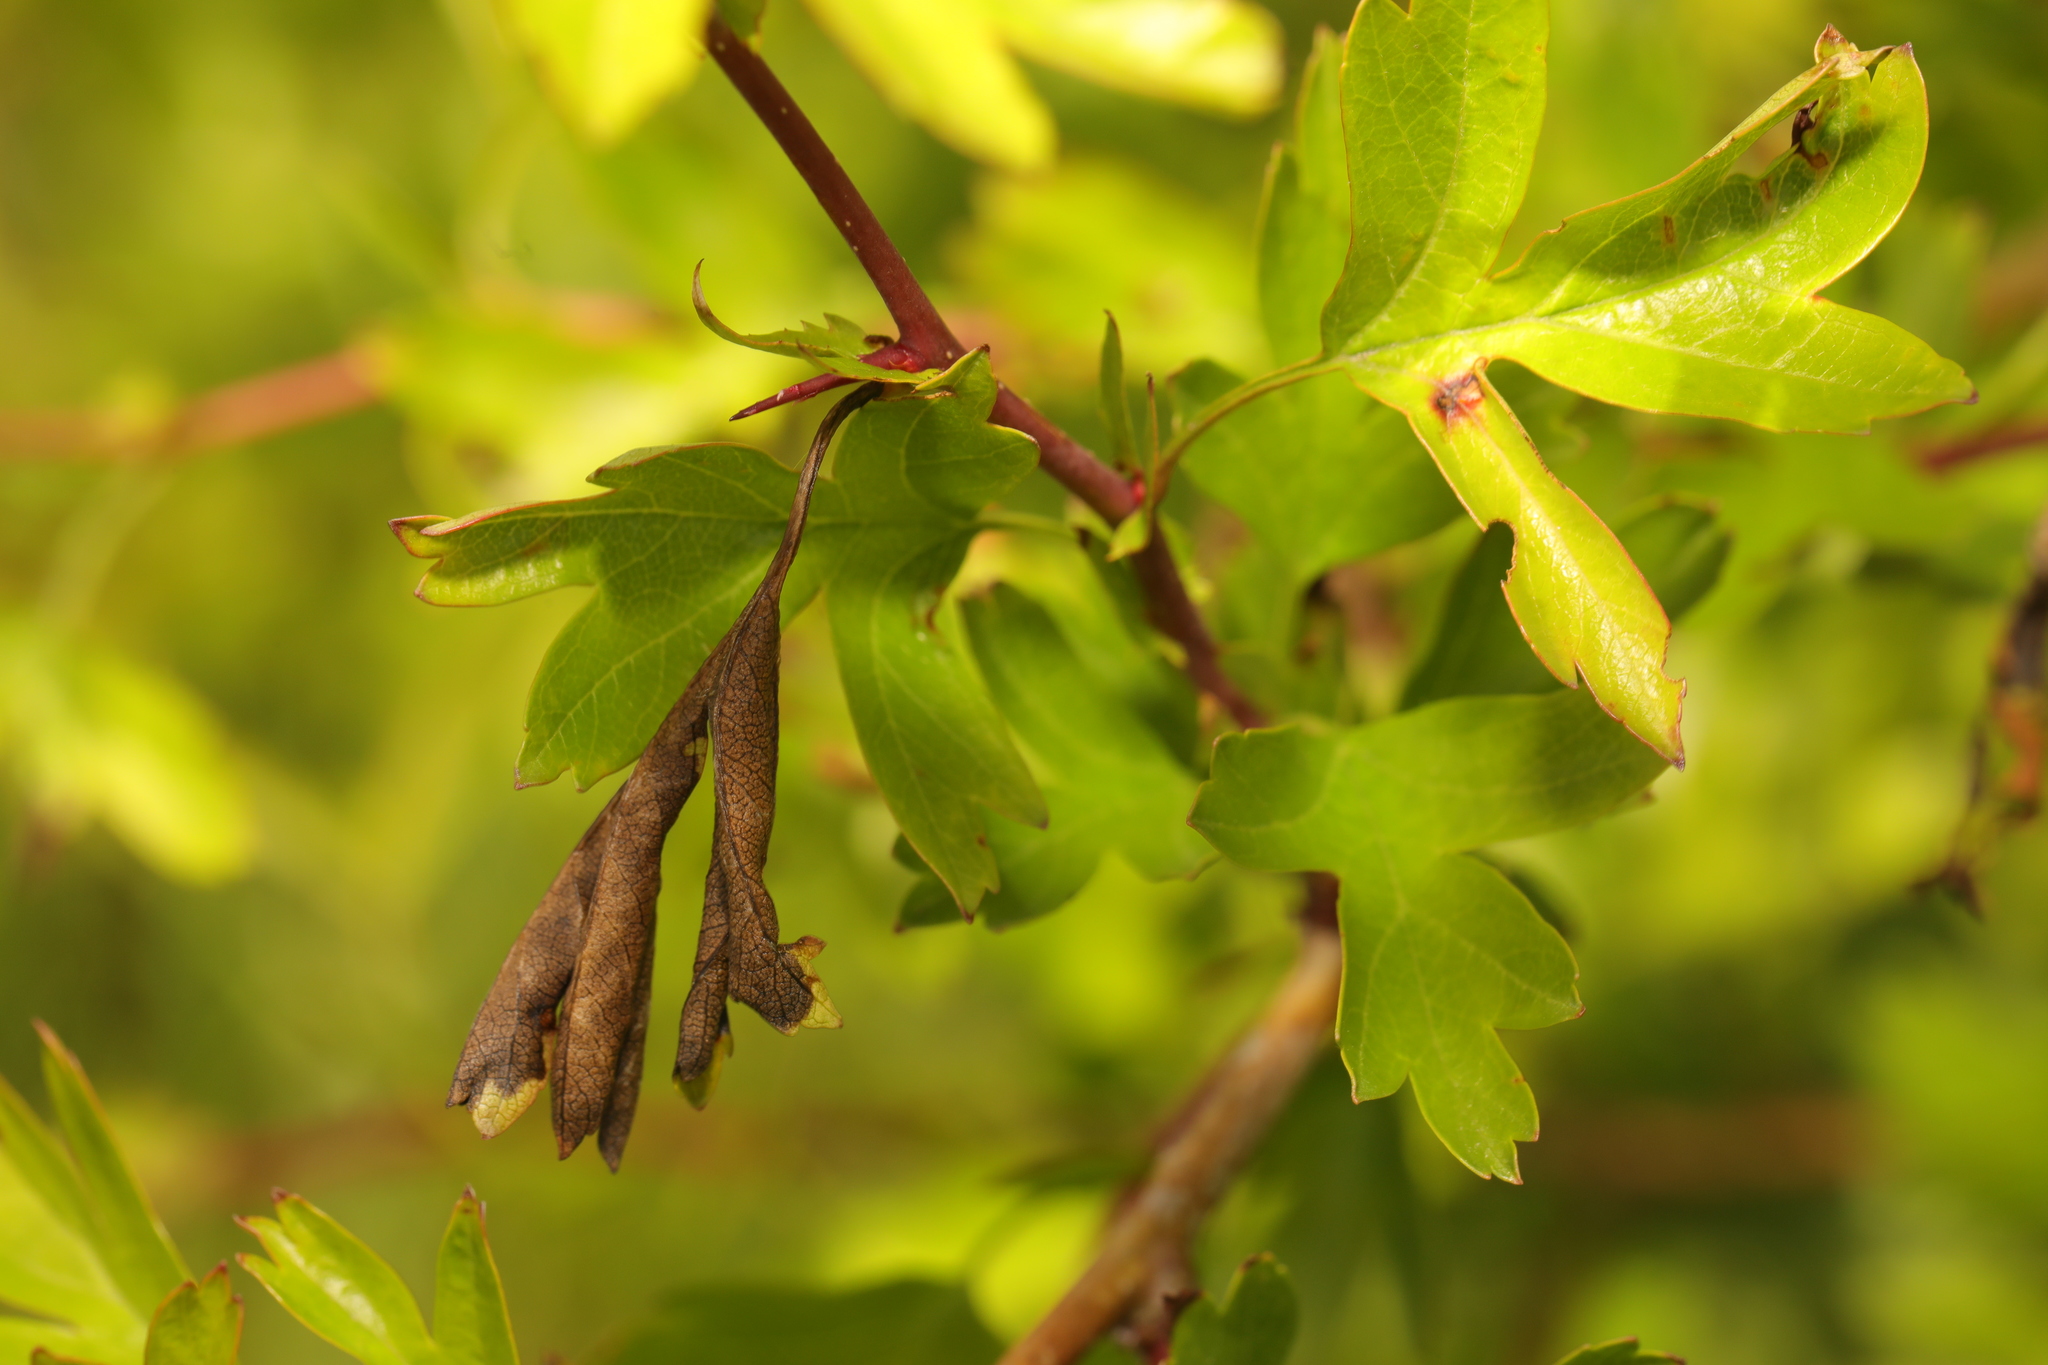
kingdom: Fungi
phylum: Ascomycota
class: Leotiomycetes
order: Helotiales
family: Sclerotiniaceae
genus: Monilinia
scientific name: Monilinia johnsonii
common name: Haw goblet
